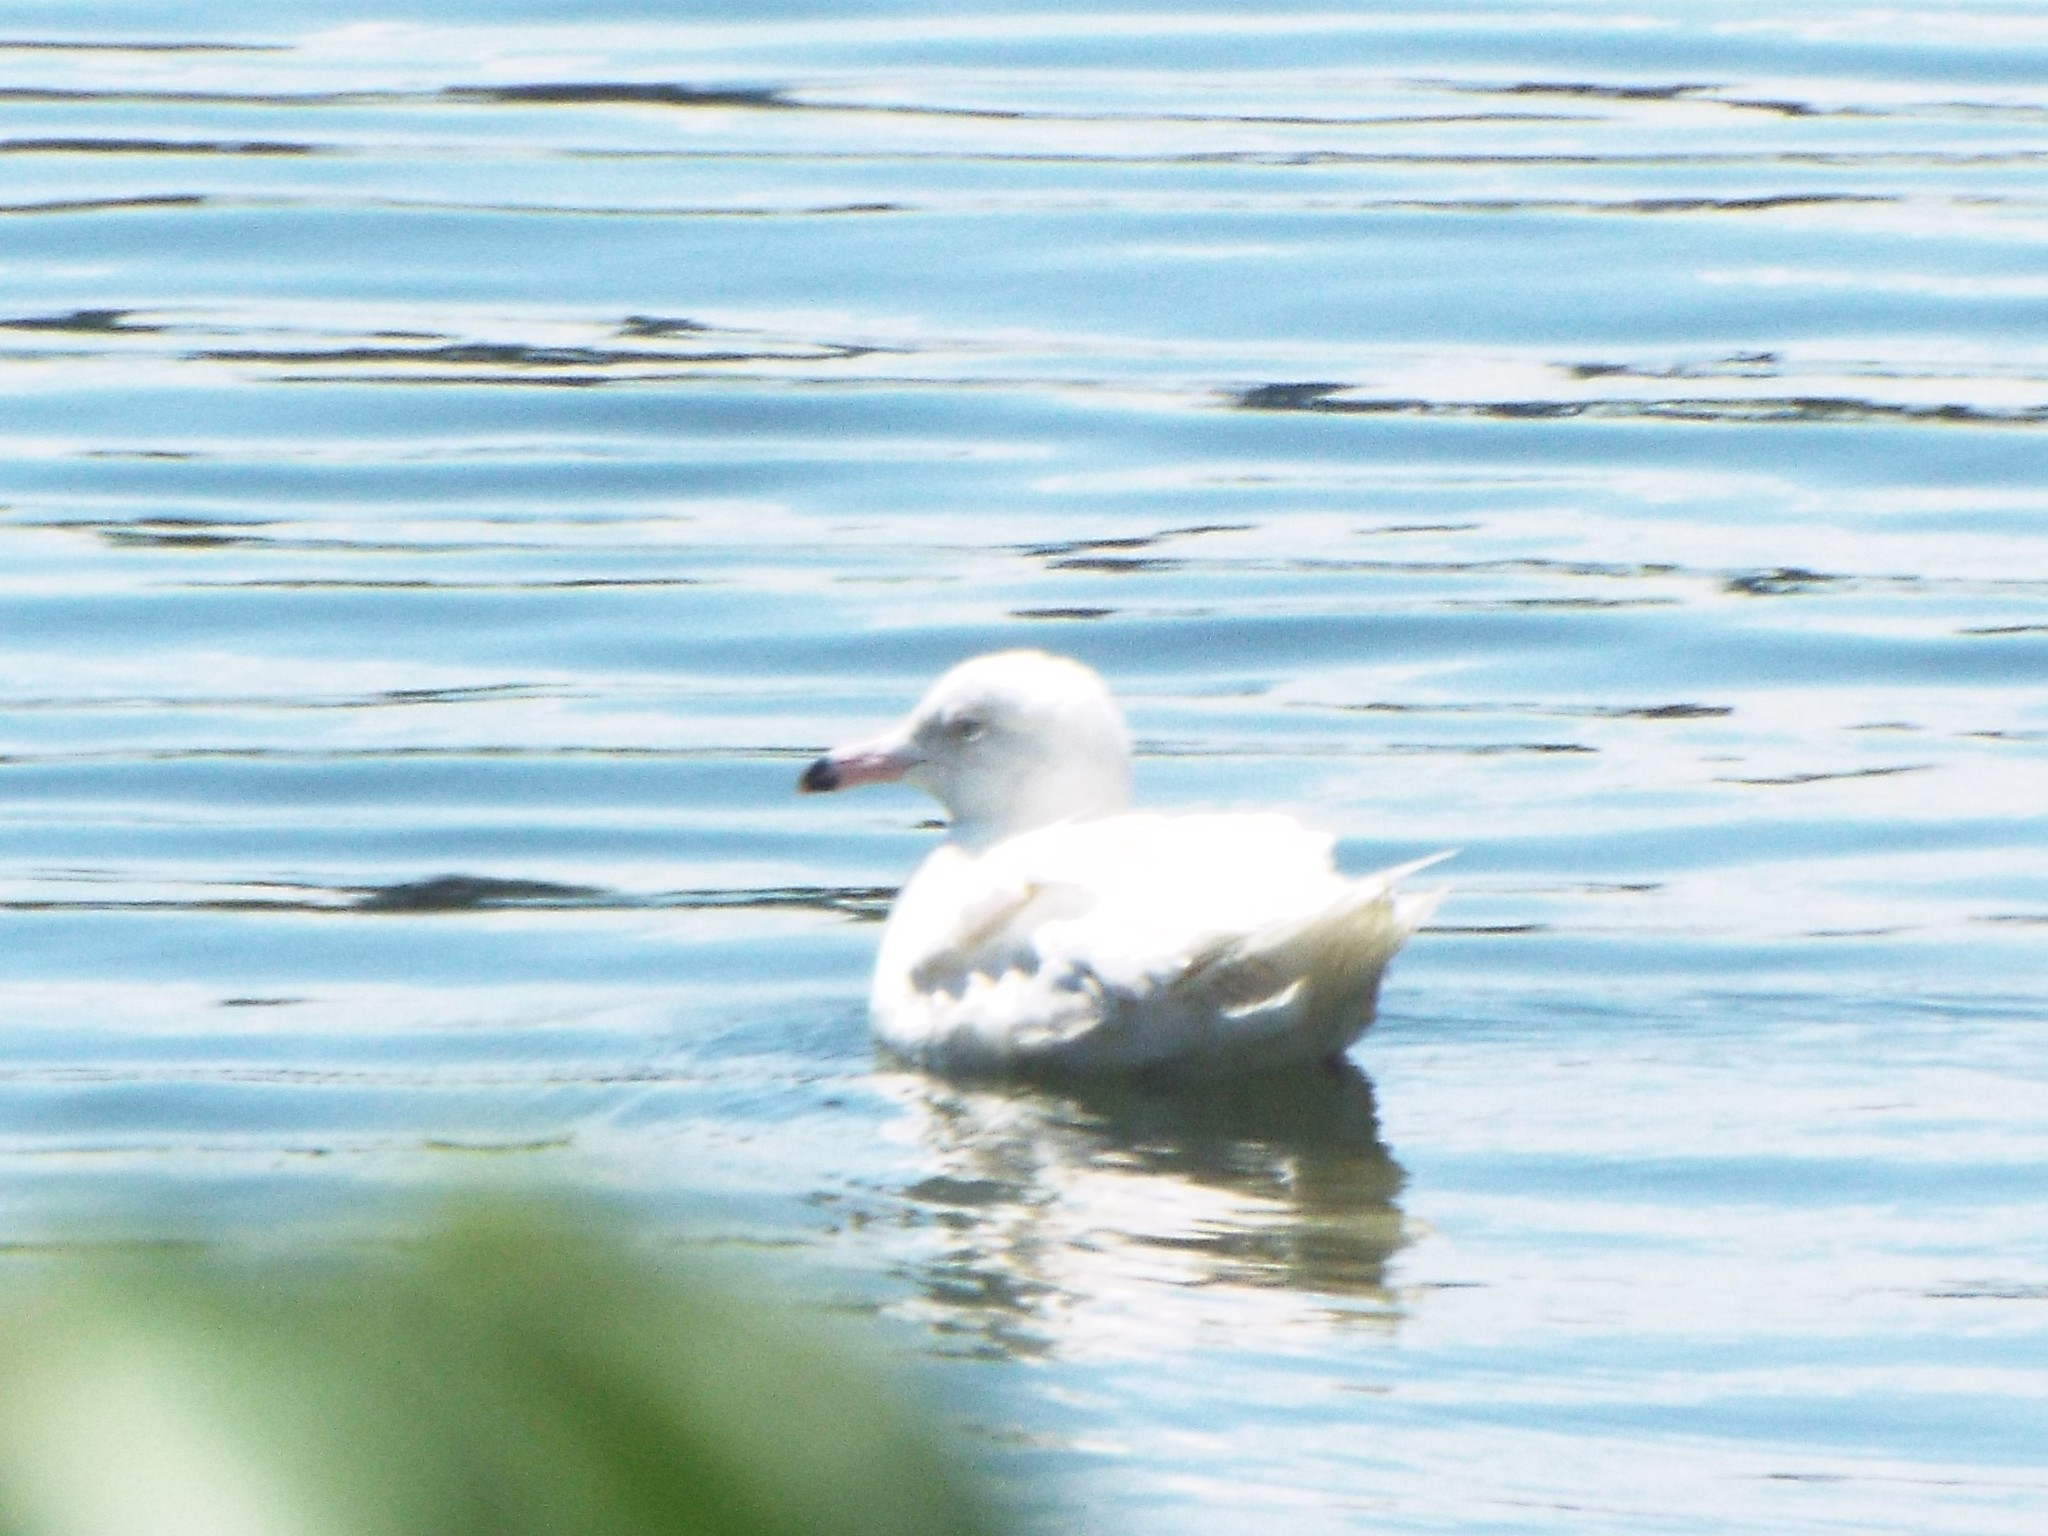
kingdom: Animalia
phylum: Chordata
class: Aves
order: Charadriiformes
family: Laridae
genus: Larus
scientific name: Larus hyperboreus
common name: Glaucous gull
